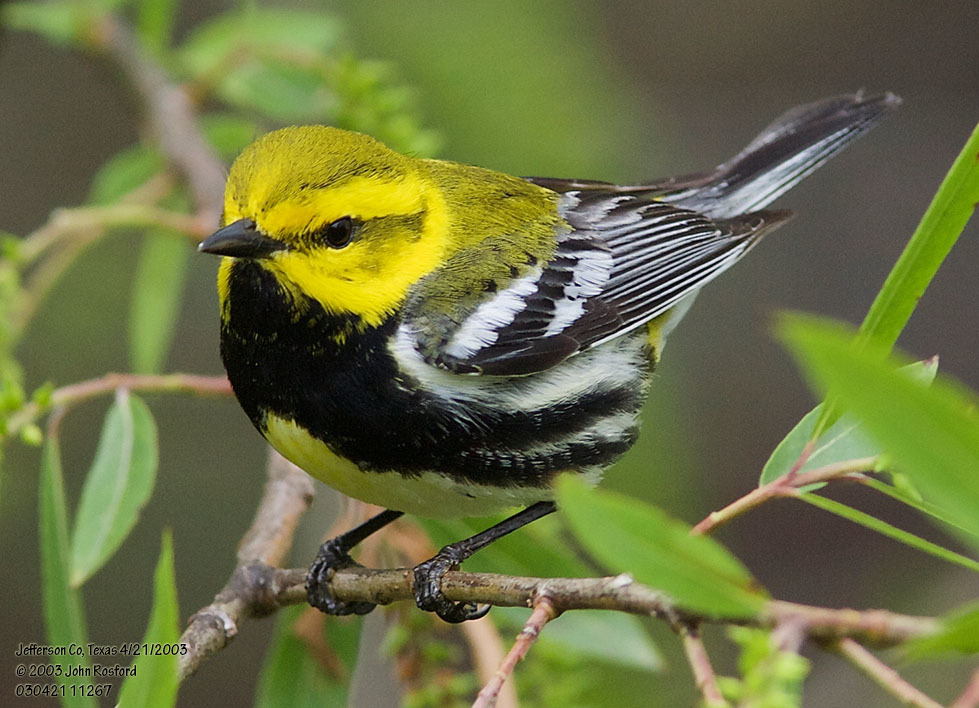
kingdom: Animalia
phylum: Chordata
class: Aves
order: Passeriformes
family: Parulidae
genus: Setophaga
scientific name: Setophaga virens
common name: Black-throated green warbler
